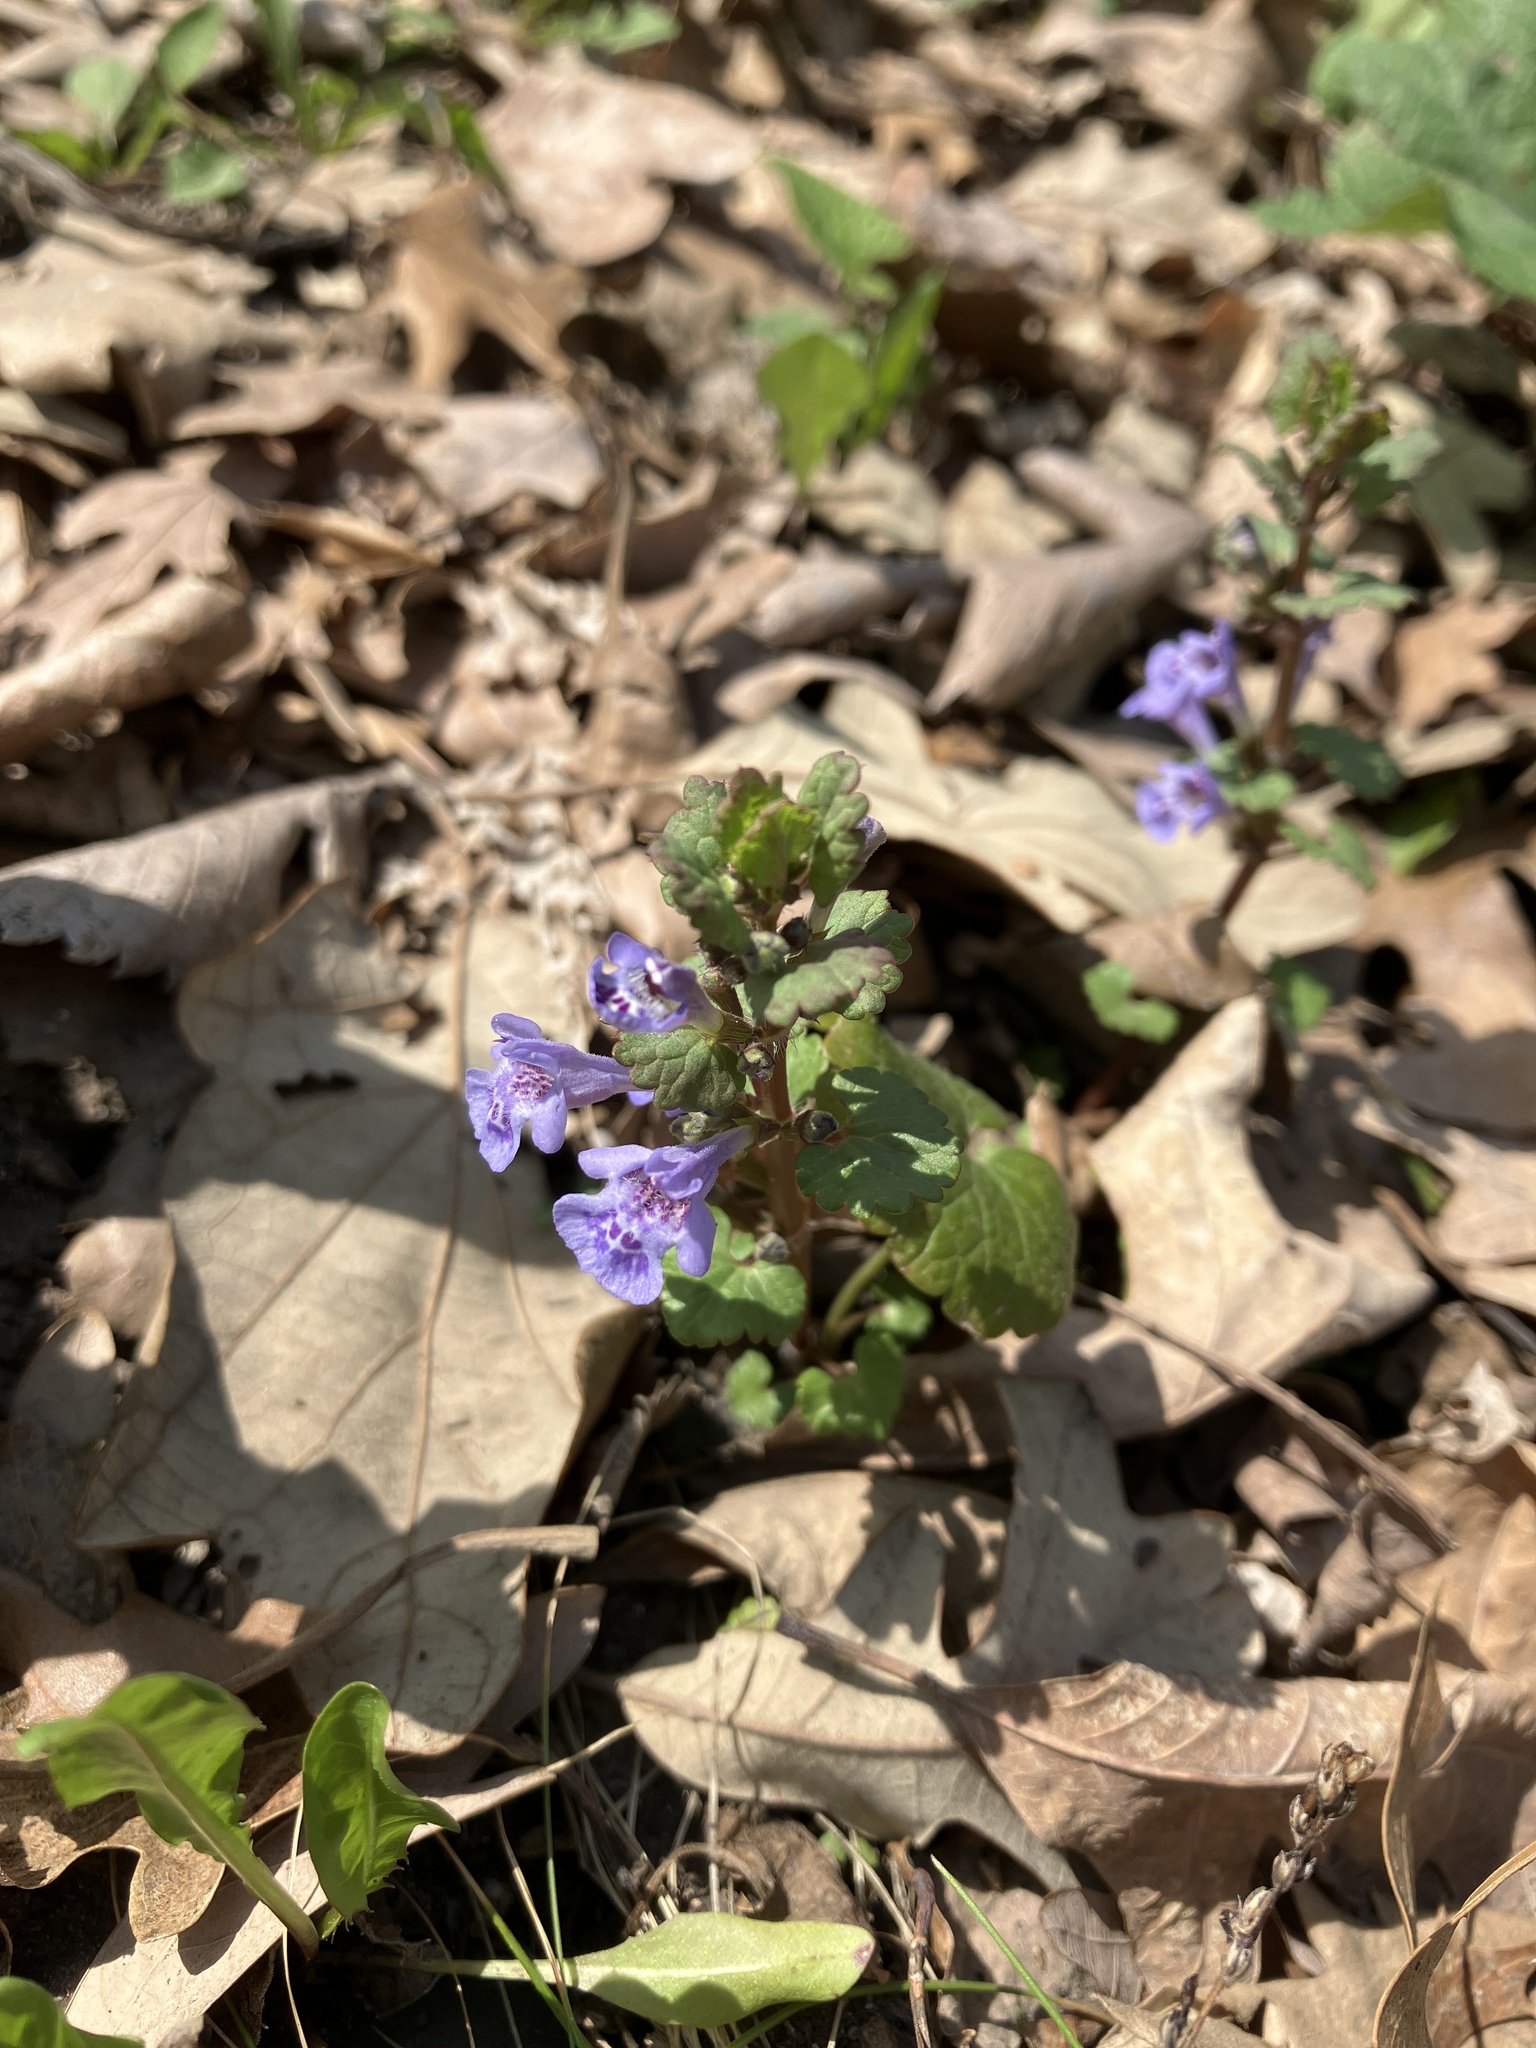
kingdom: Plantae
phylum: Tracheophyta
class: Magnoliopsida
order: Lamiales
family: Lamiaceae
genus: Glechoma
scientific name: Glechoma hederacea
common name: Ground ivy
